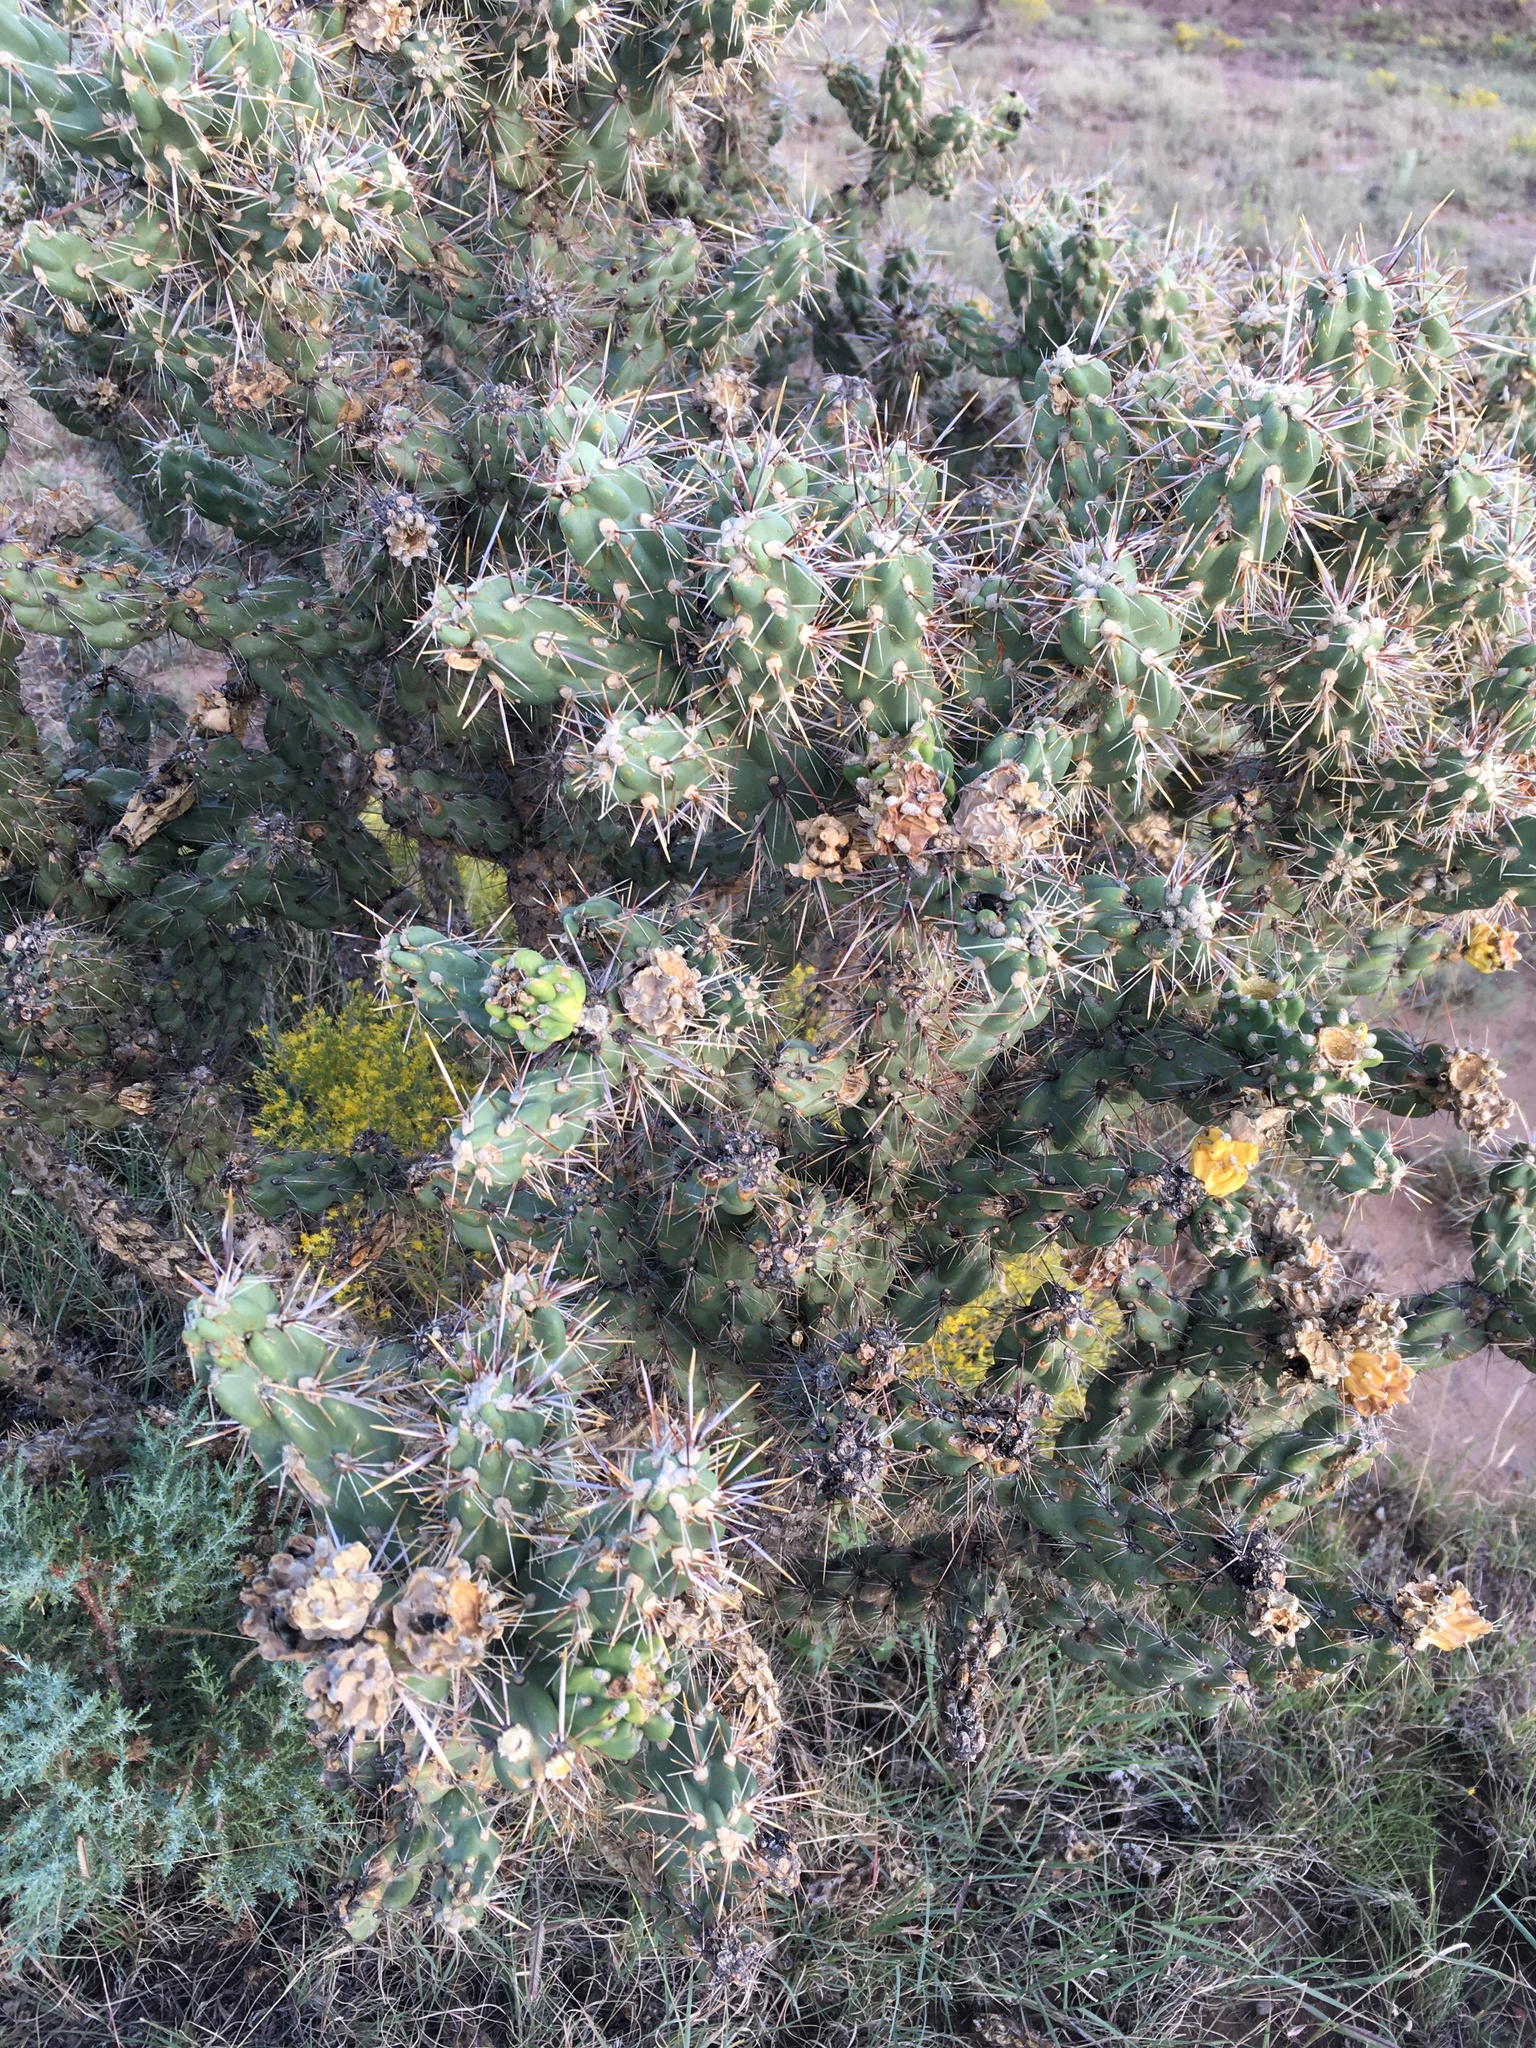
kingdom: Plantae
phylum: Tracheophyta
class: Magnoliopsida
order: Caryophyllales
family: Cactaceae
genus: Cylindropuntia
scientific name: Cylindropuntia imbricata
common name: Candelabrum cactus
